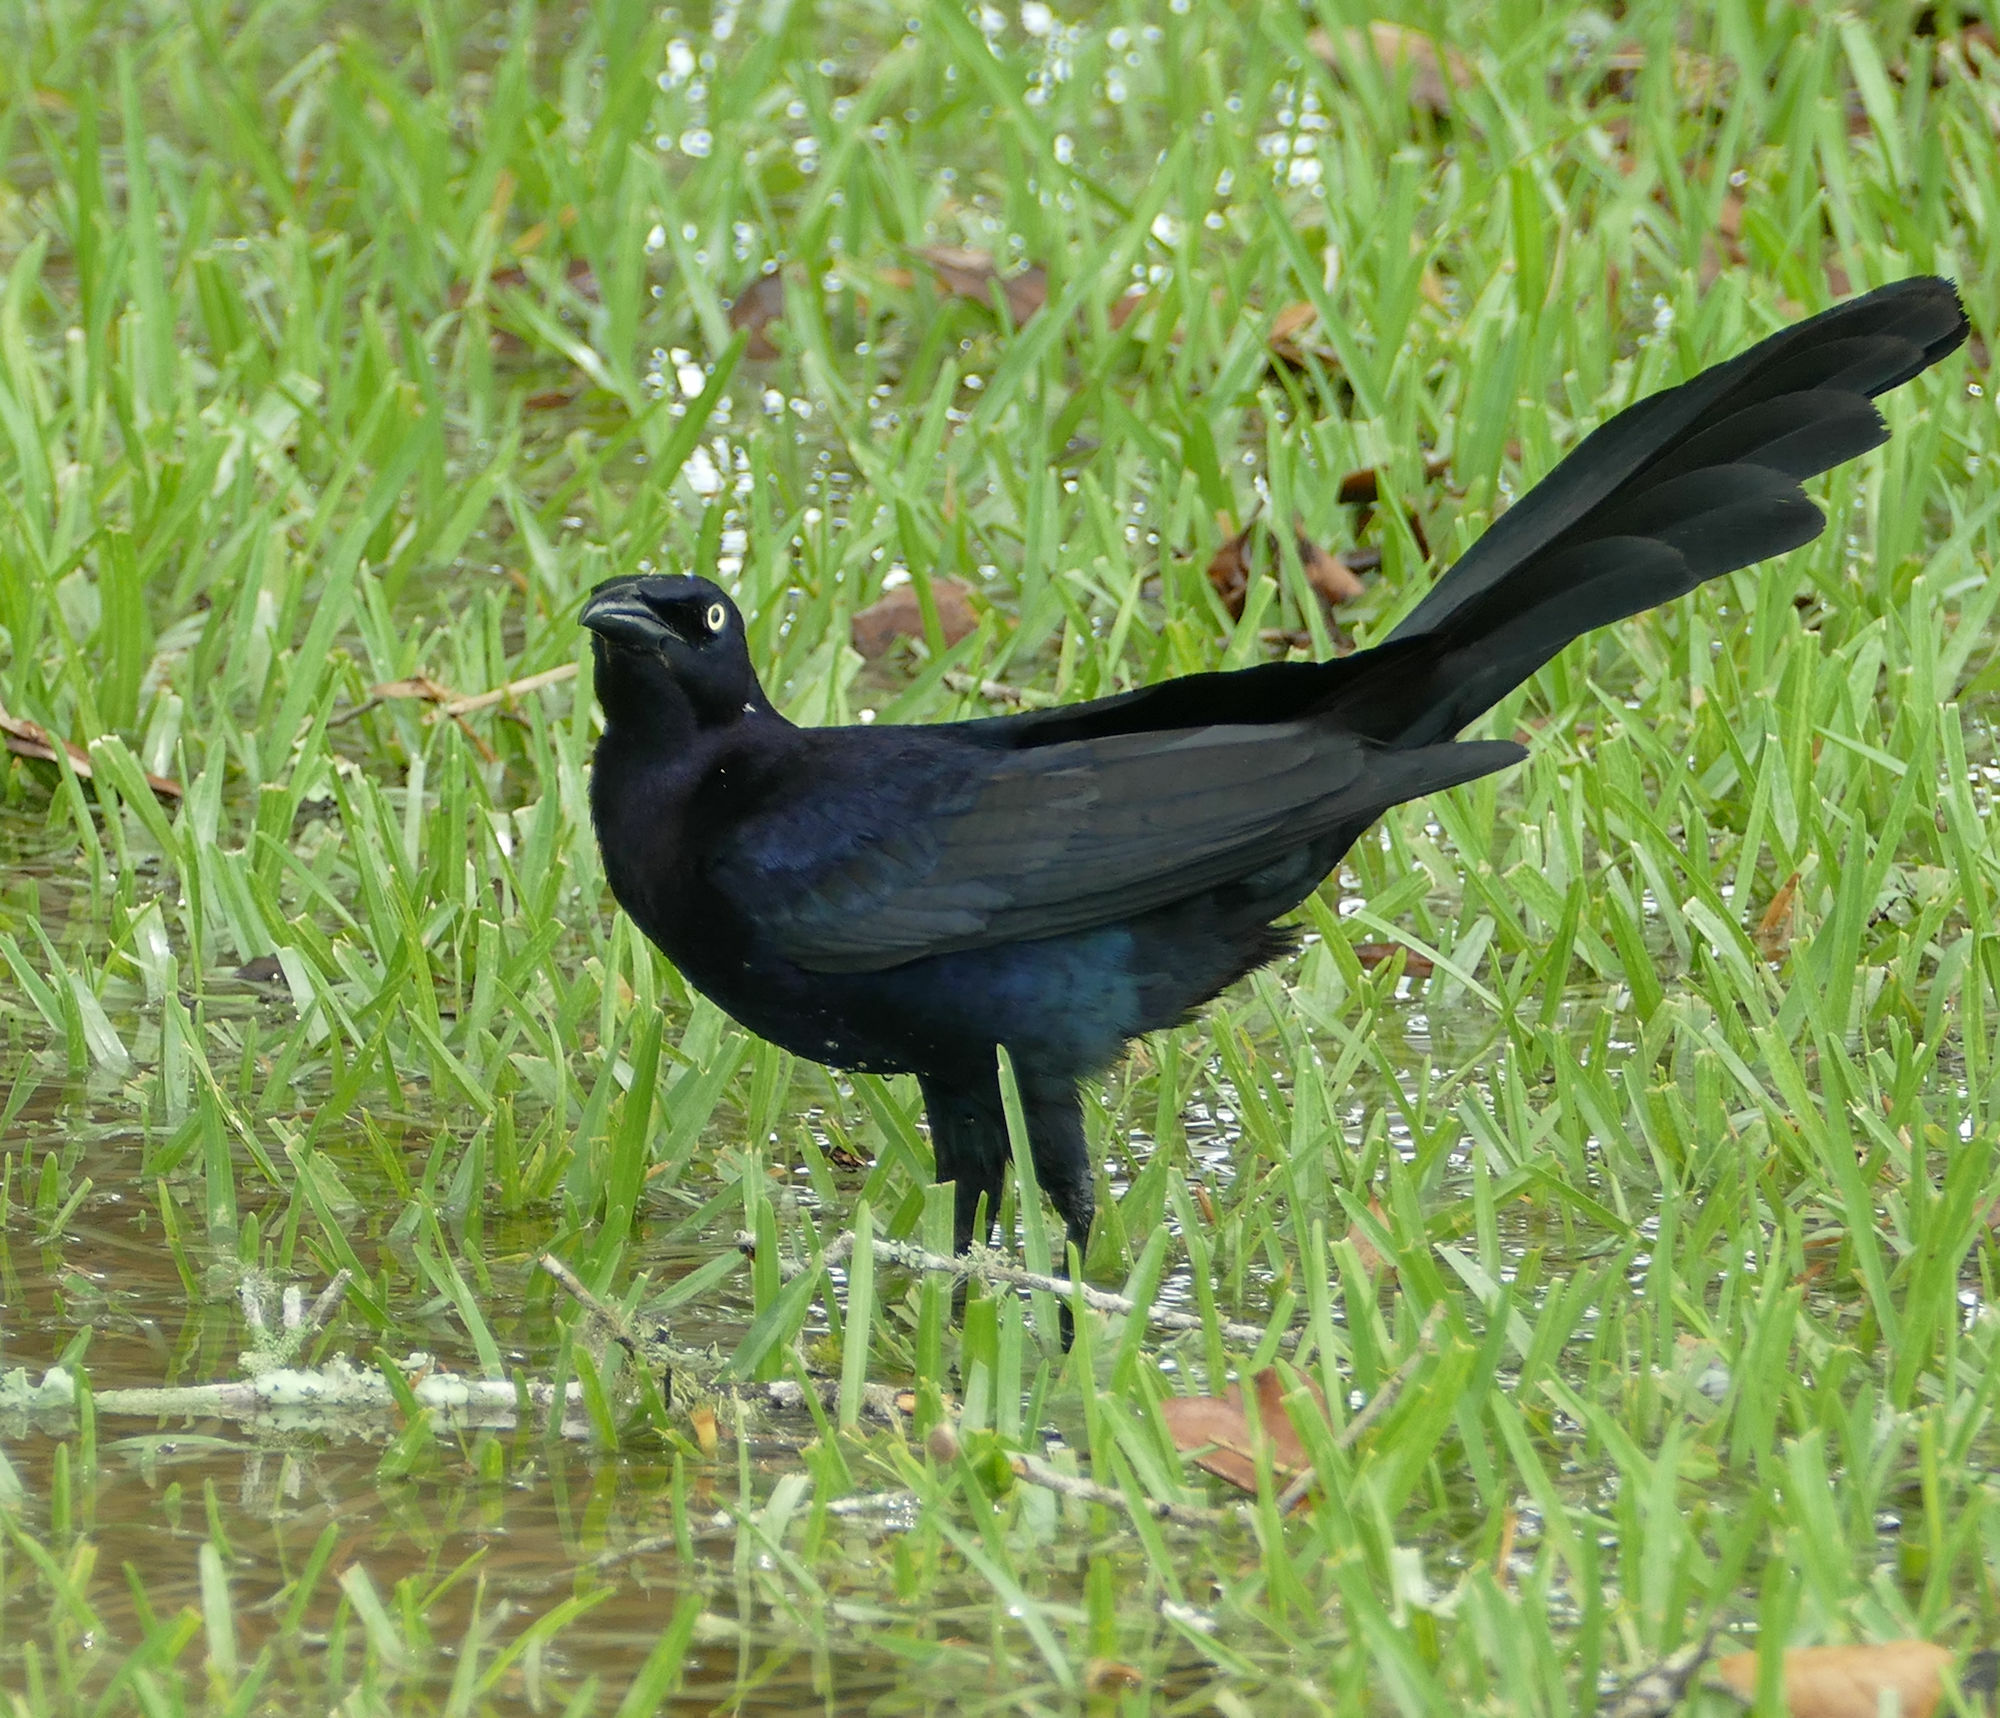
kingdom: Animalia
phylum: Chordata
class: Aves
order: Passeriformes
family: Icteridae
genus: Quiscalus
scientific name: Quiscalus mexicanus
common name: Great-tailed grackle
